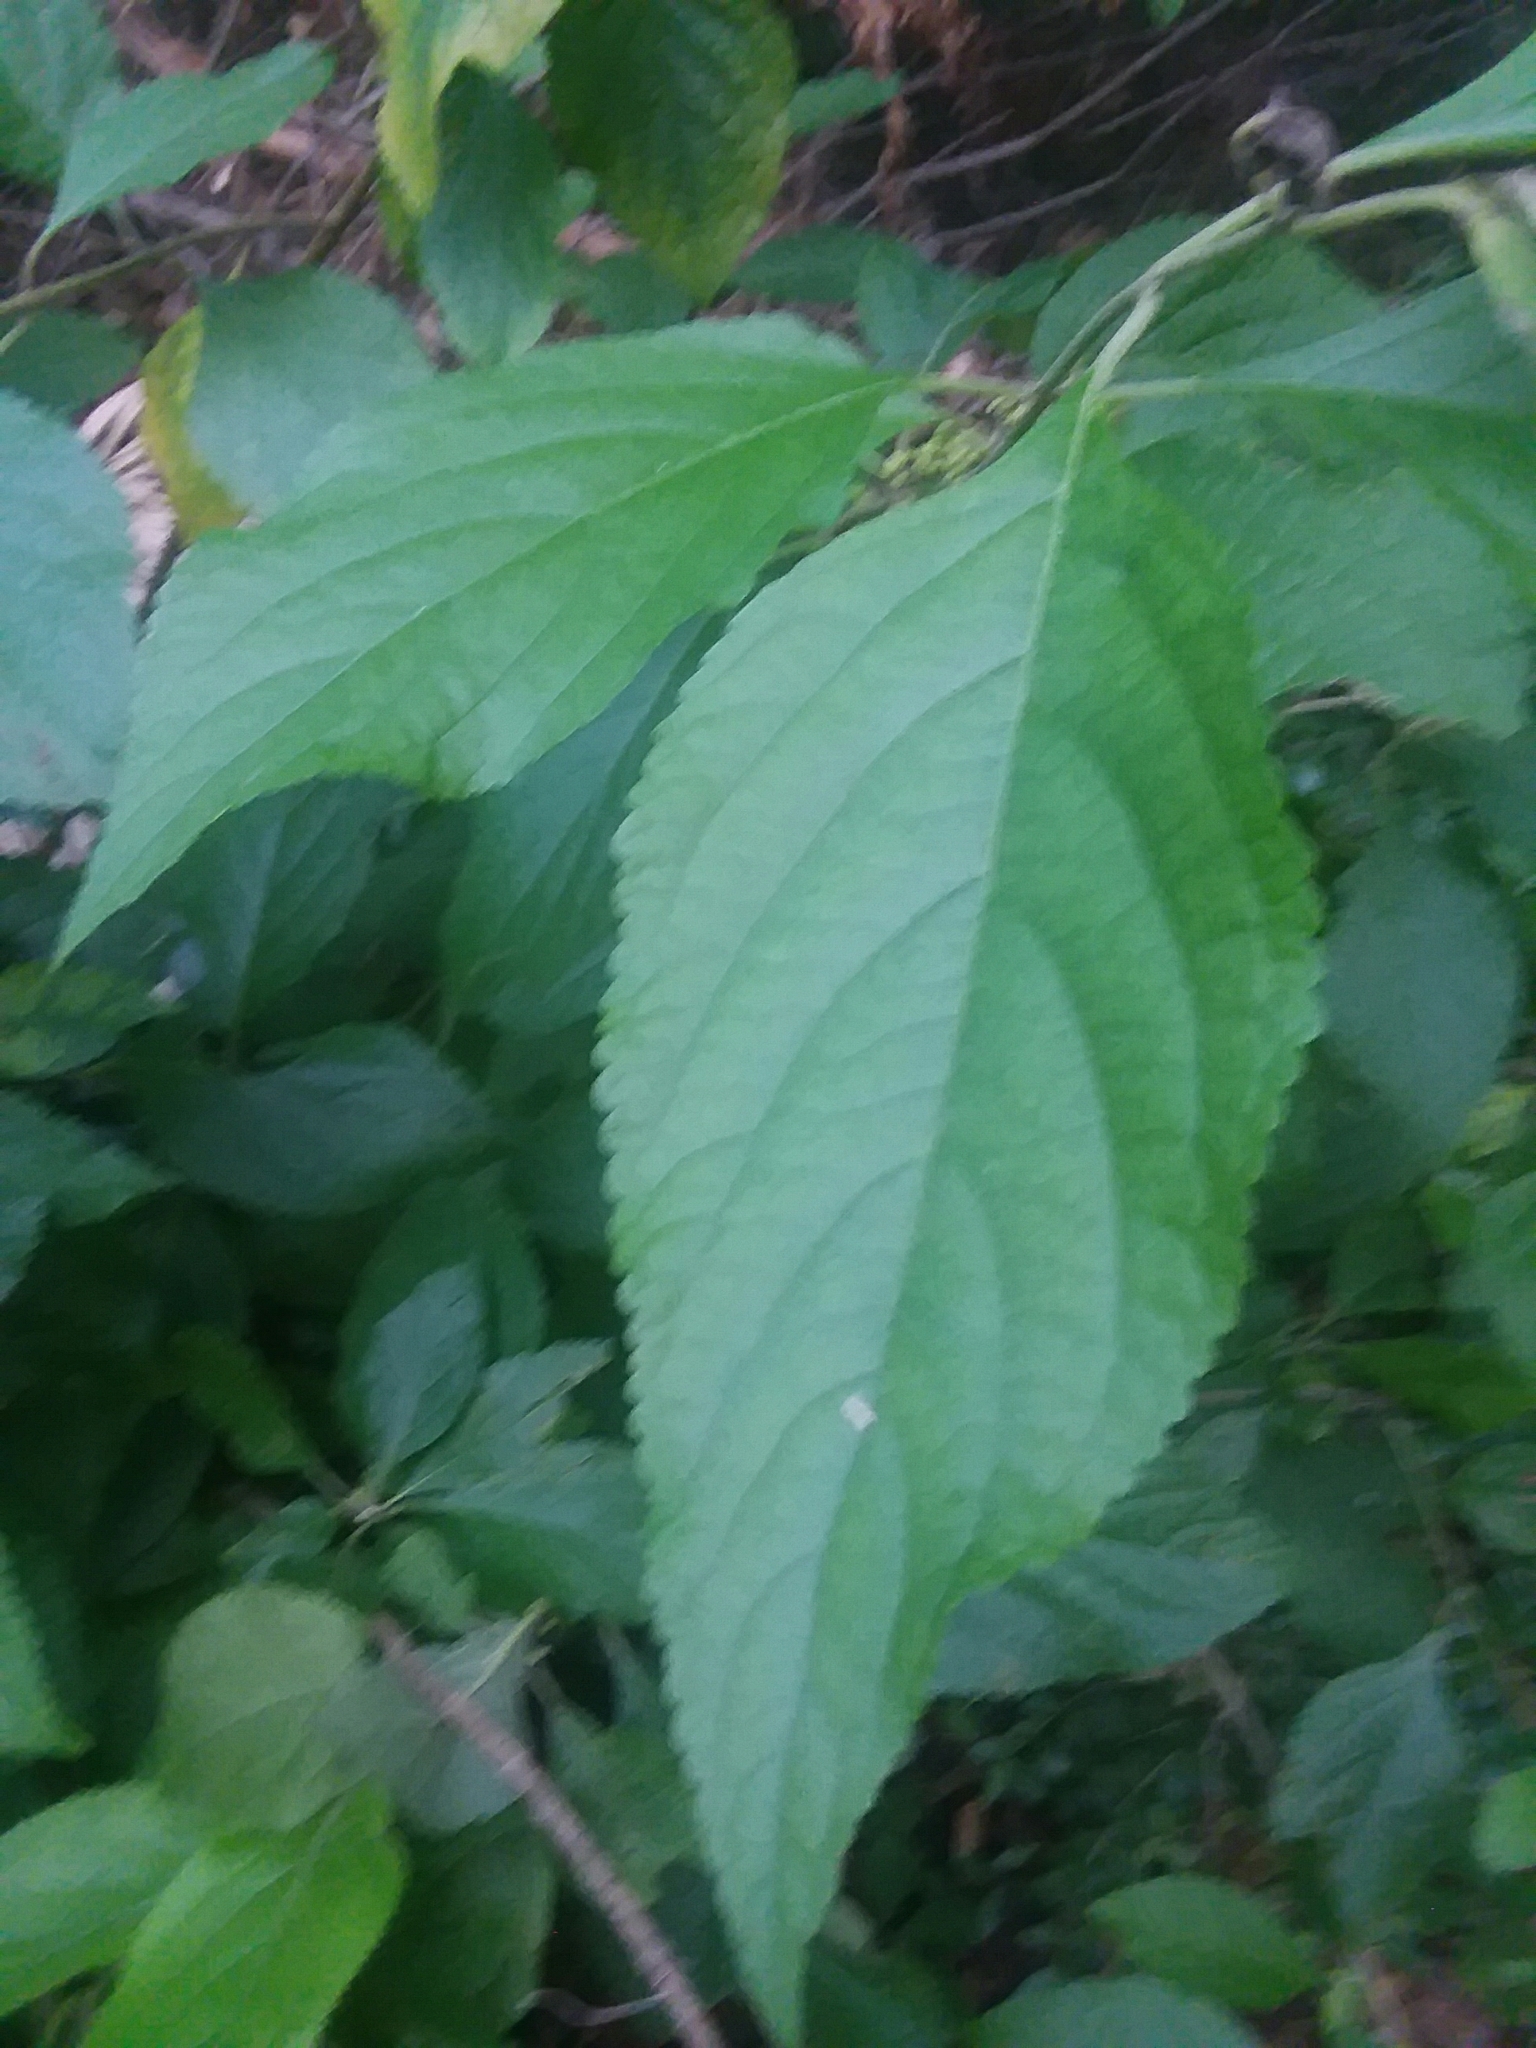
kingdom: Plantae
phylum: Tracheophyta
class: Magnoliopsida
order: Lamiales
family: Lamiaceae
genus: Callicarpa
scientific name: Callicarpa americana
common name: American beautyberry
